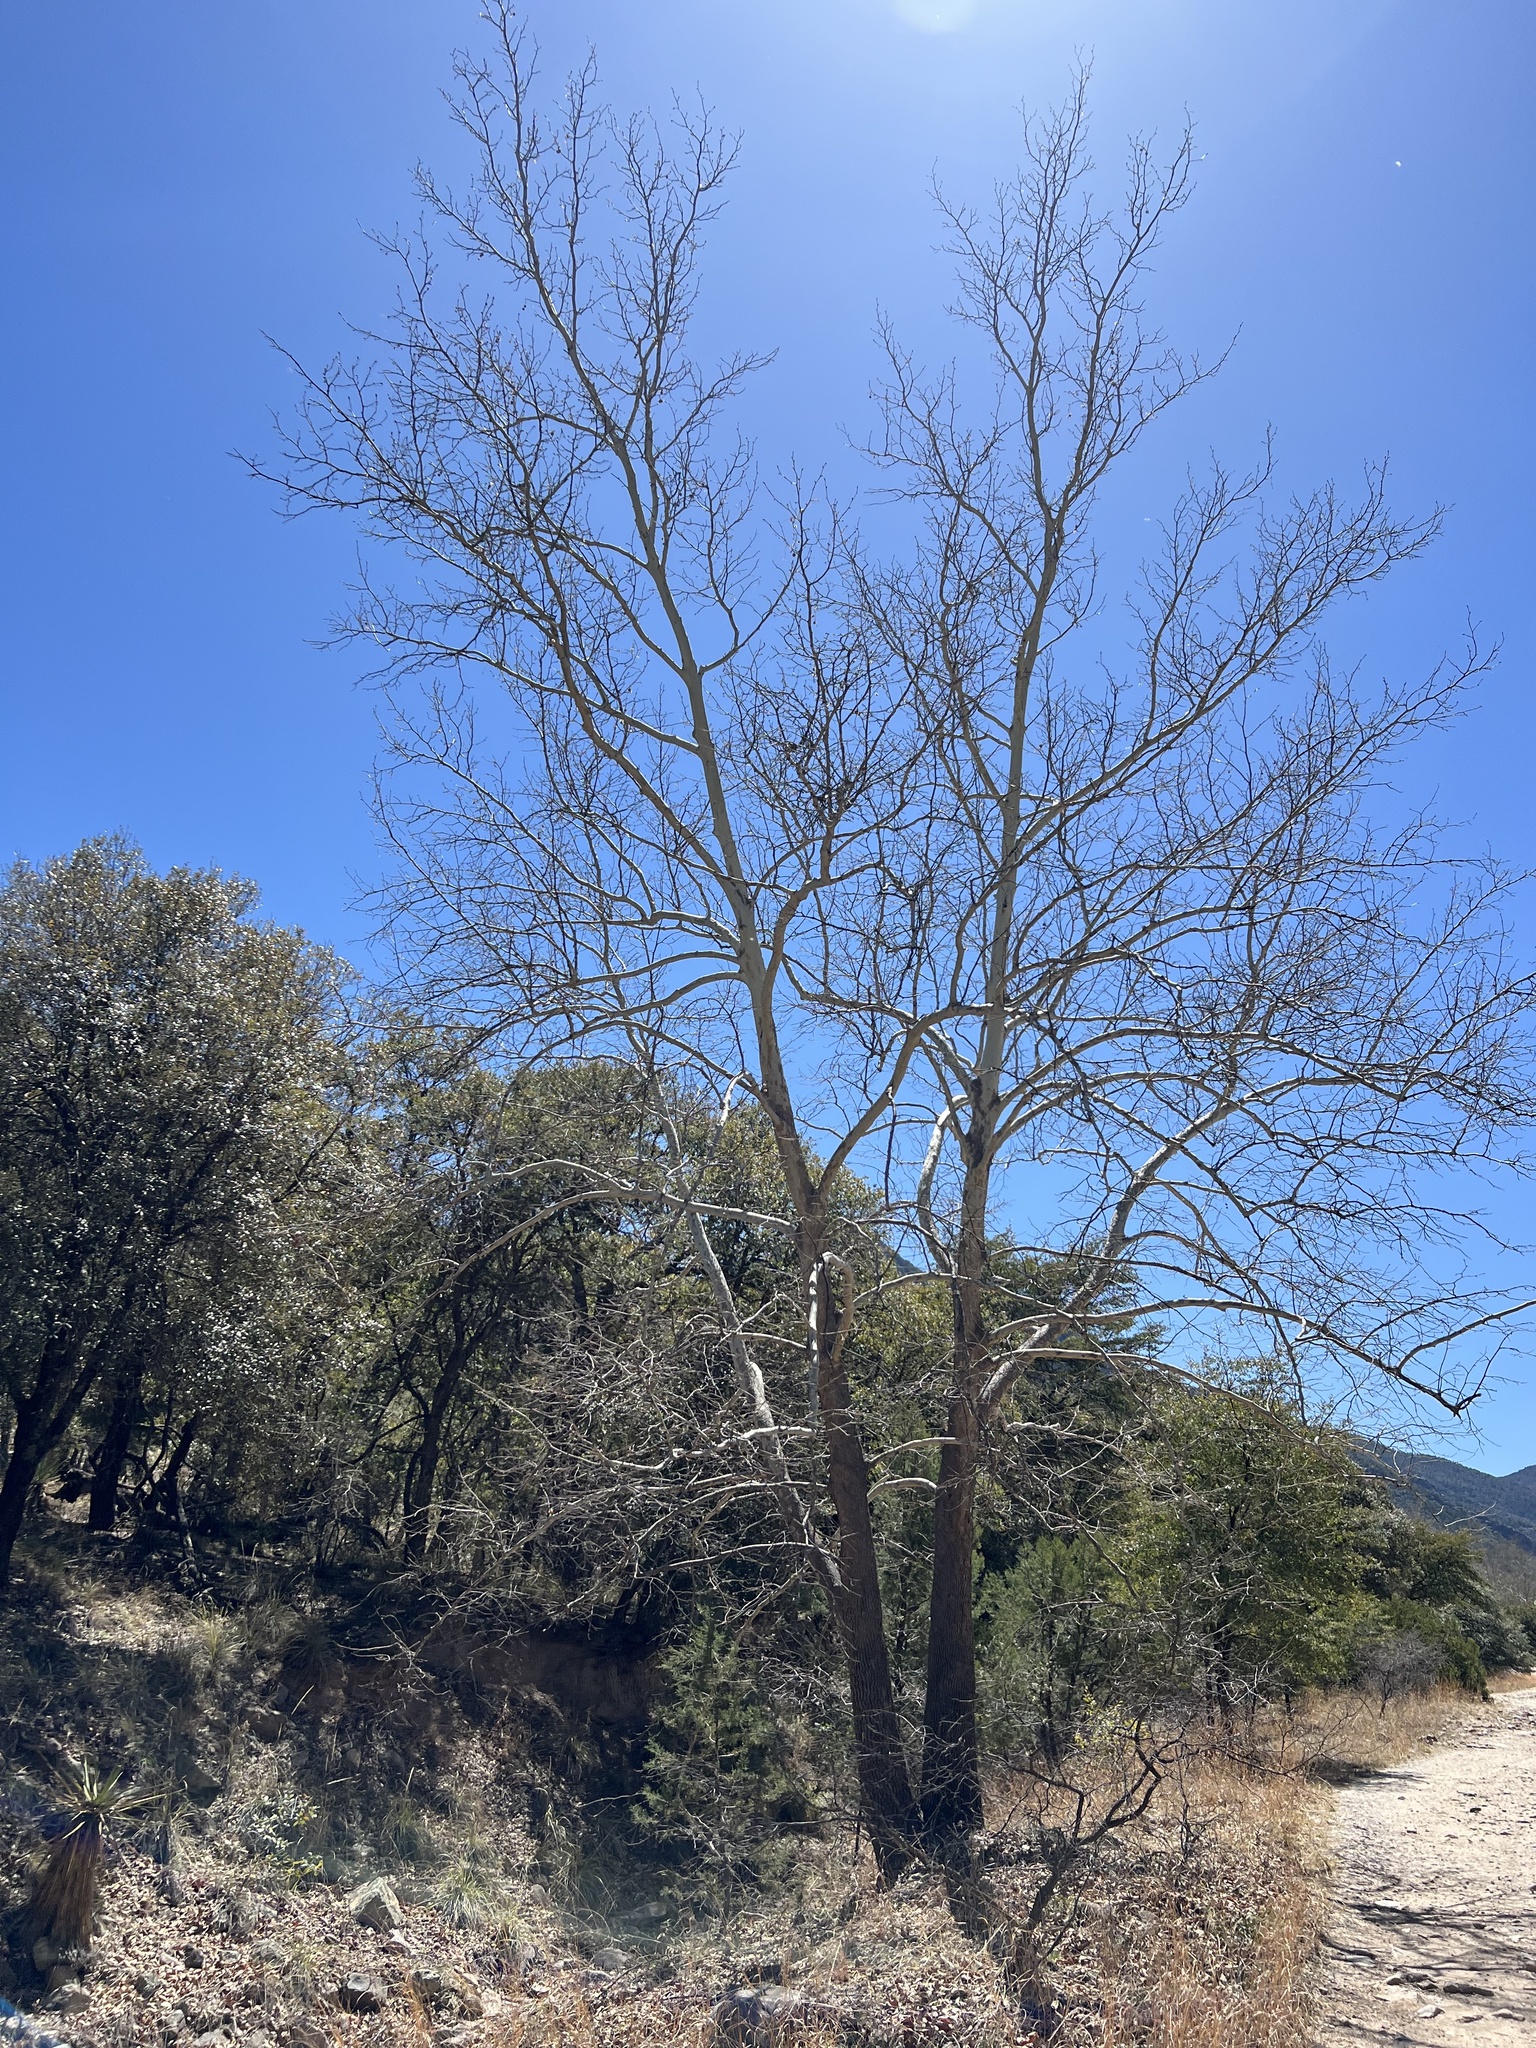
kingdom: Plantae
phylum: Tracheophyta
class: Magnoliopsida
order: Proteales
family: Platanaceae
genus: Platanus
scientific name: Platanus wrightii
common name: Arizona sycamore
